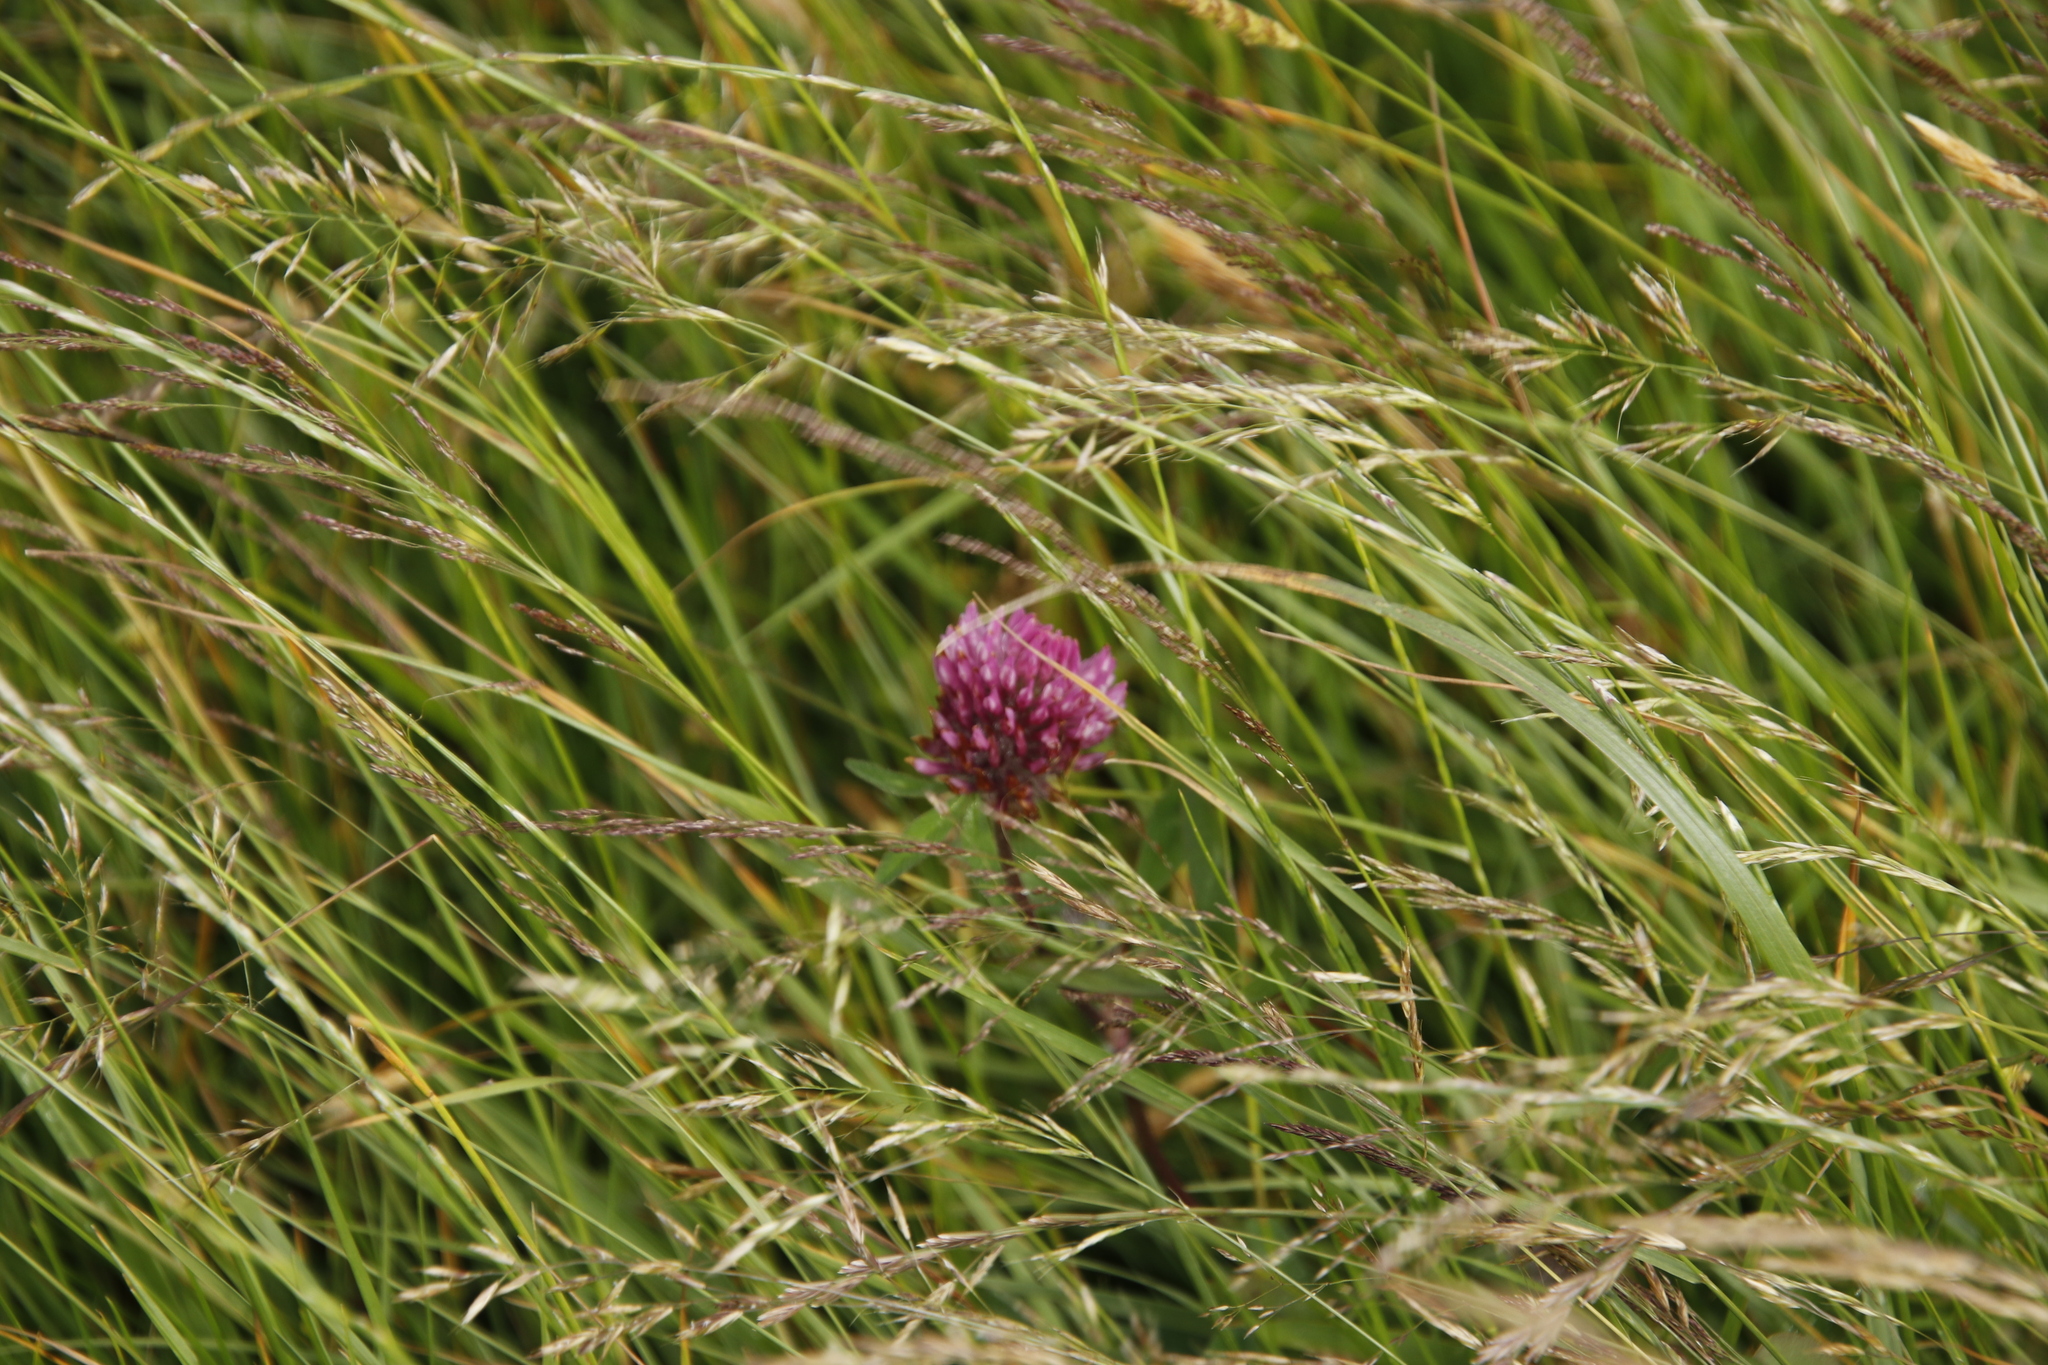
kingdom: Plantae
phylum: Tracheophyta
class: Magnoliopsida
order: Fabales
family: Fabaceae
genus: Trifolium
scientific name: Trifolium pratense
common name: Red clover
